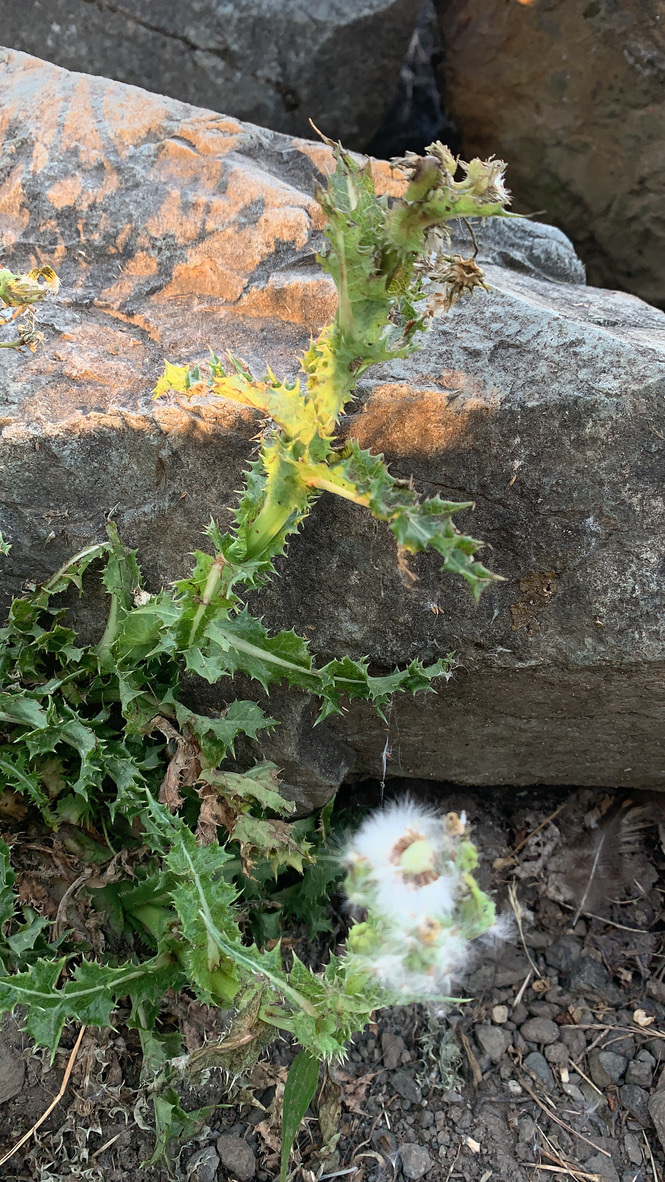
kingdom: Plantae
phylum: Tracheophyta
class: Magnoliopsida
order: Asterales
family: Asteraceae
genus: Sonchus
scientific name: Sonchus asper
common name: Prickly sow-thistle
